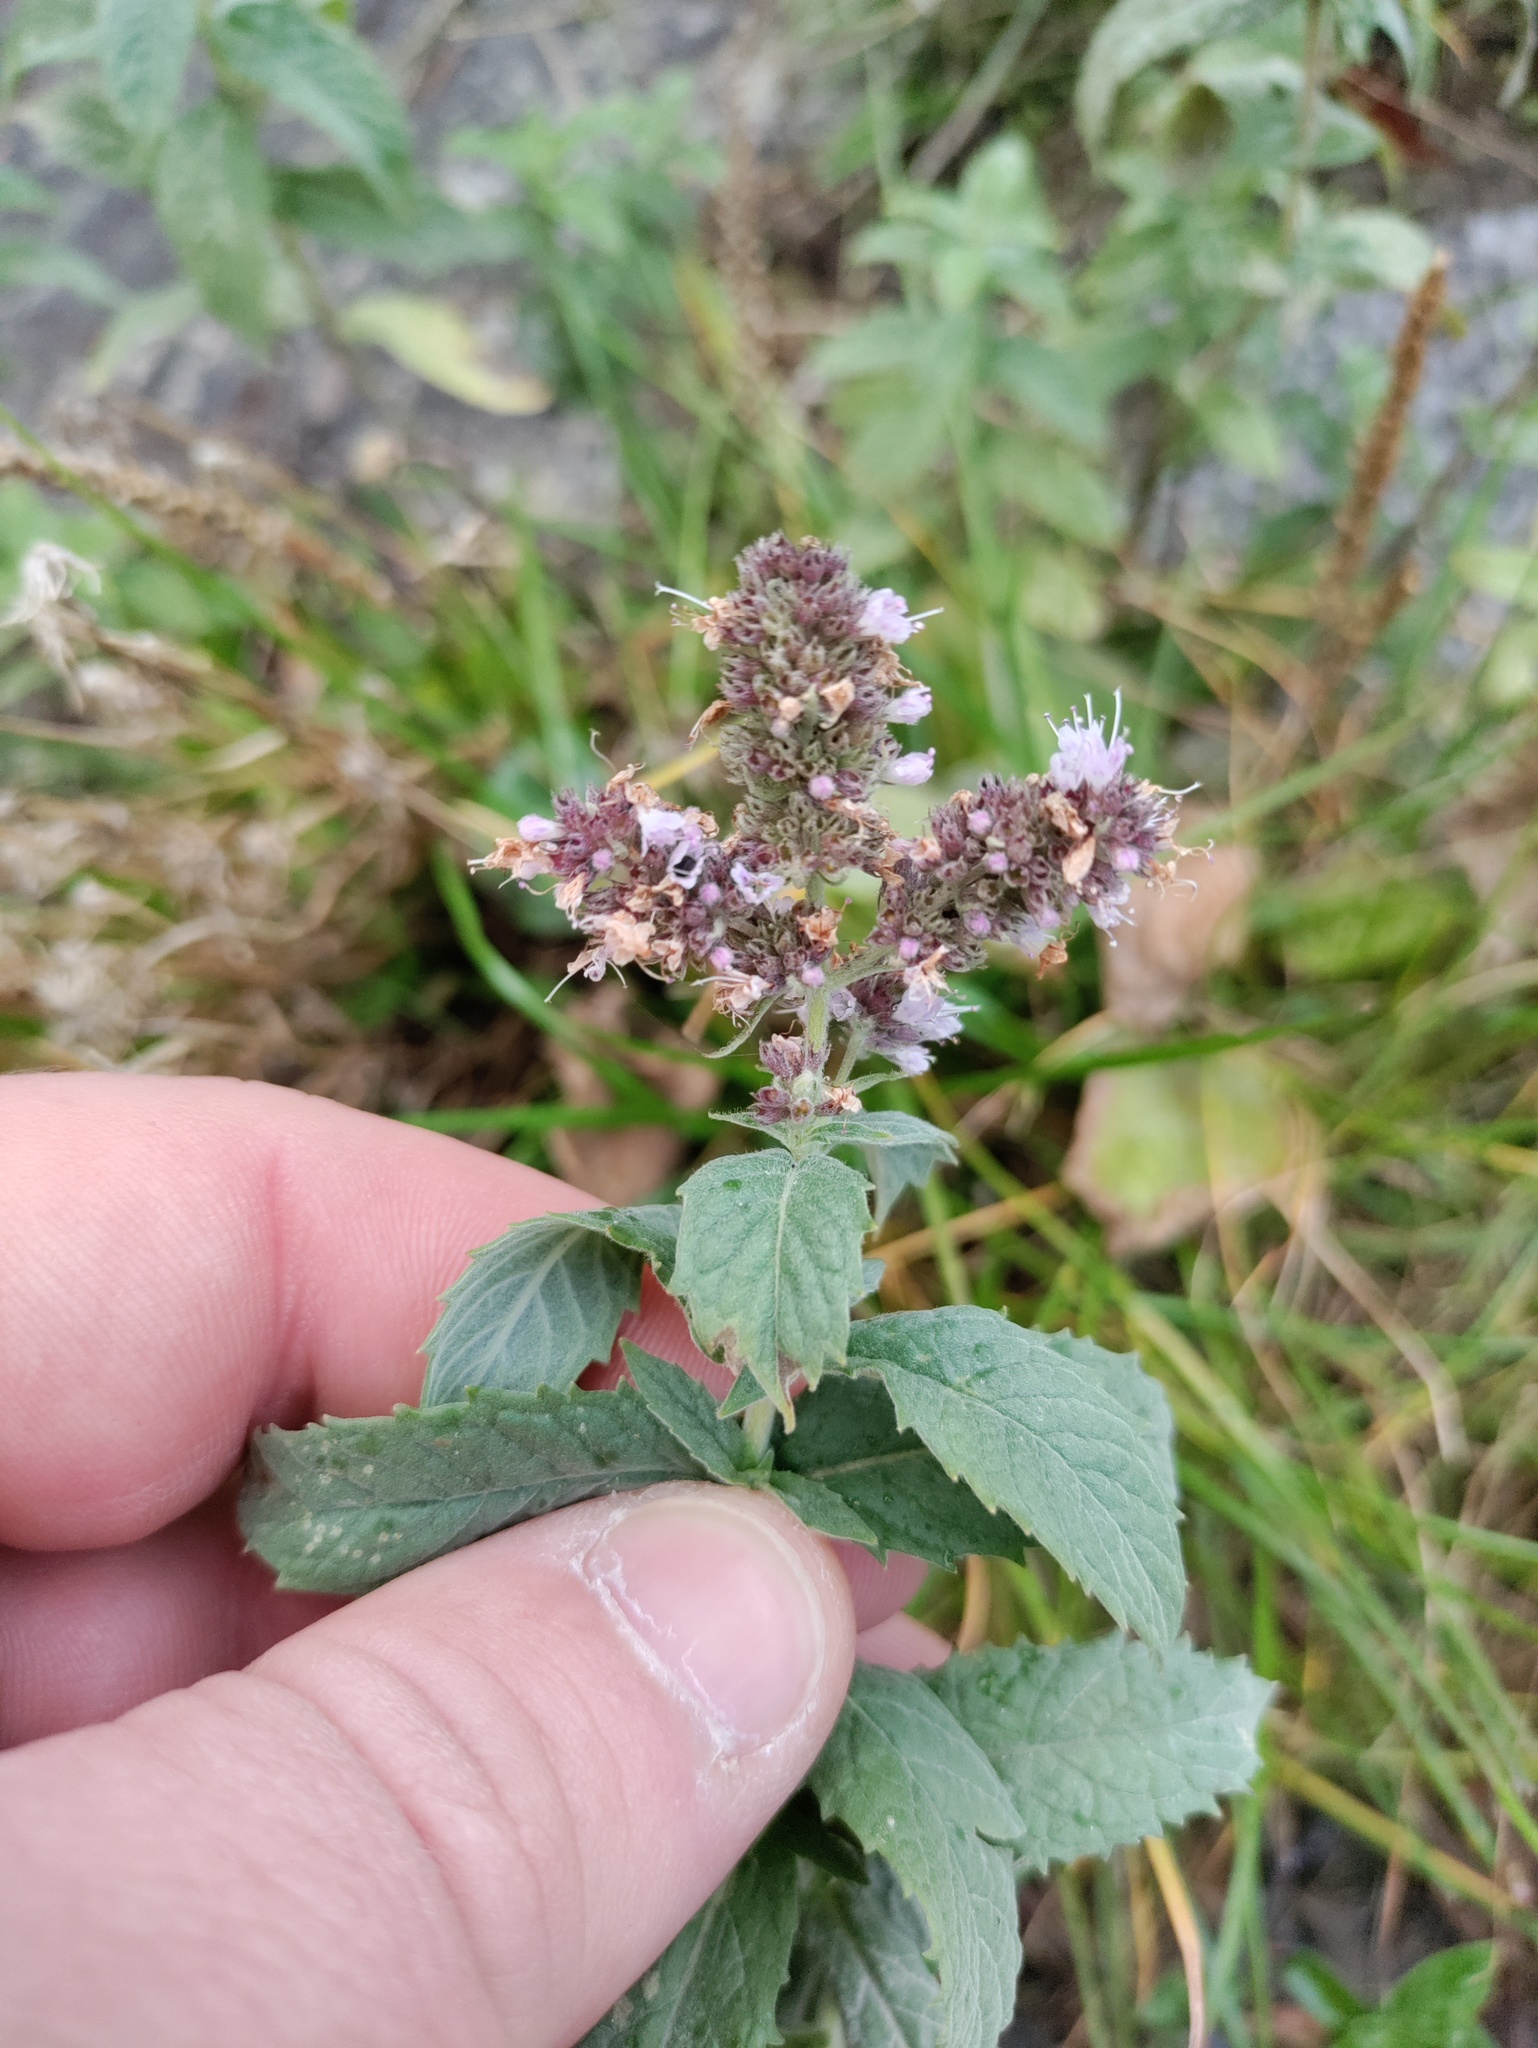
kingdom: Plantae
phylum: Tracheophyta
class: Magnoliopsida
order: Lamiales
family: Lamiaceae
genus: Mentha
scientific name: Mentha longifolia
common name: Horse mint
